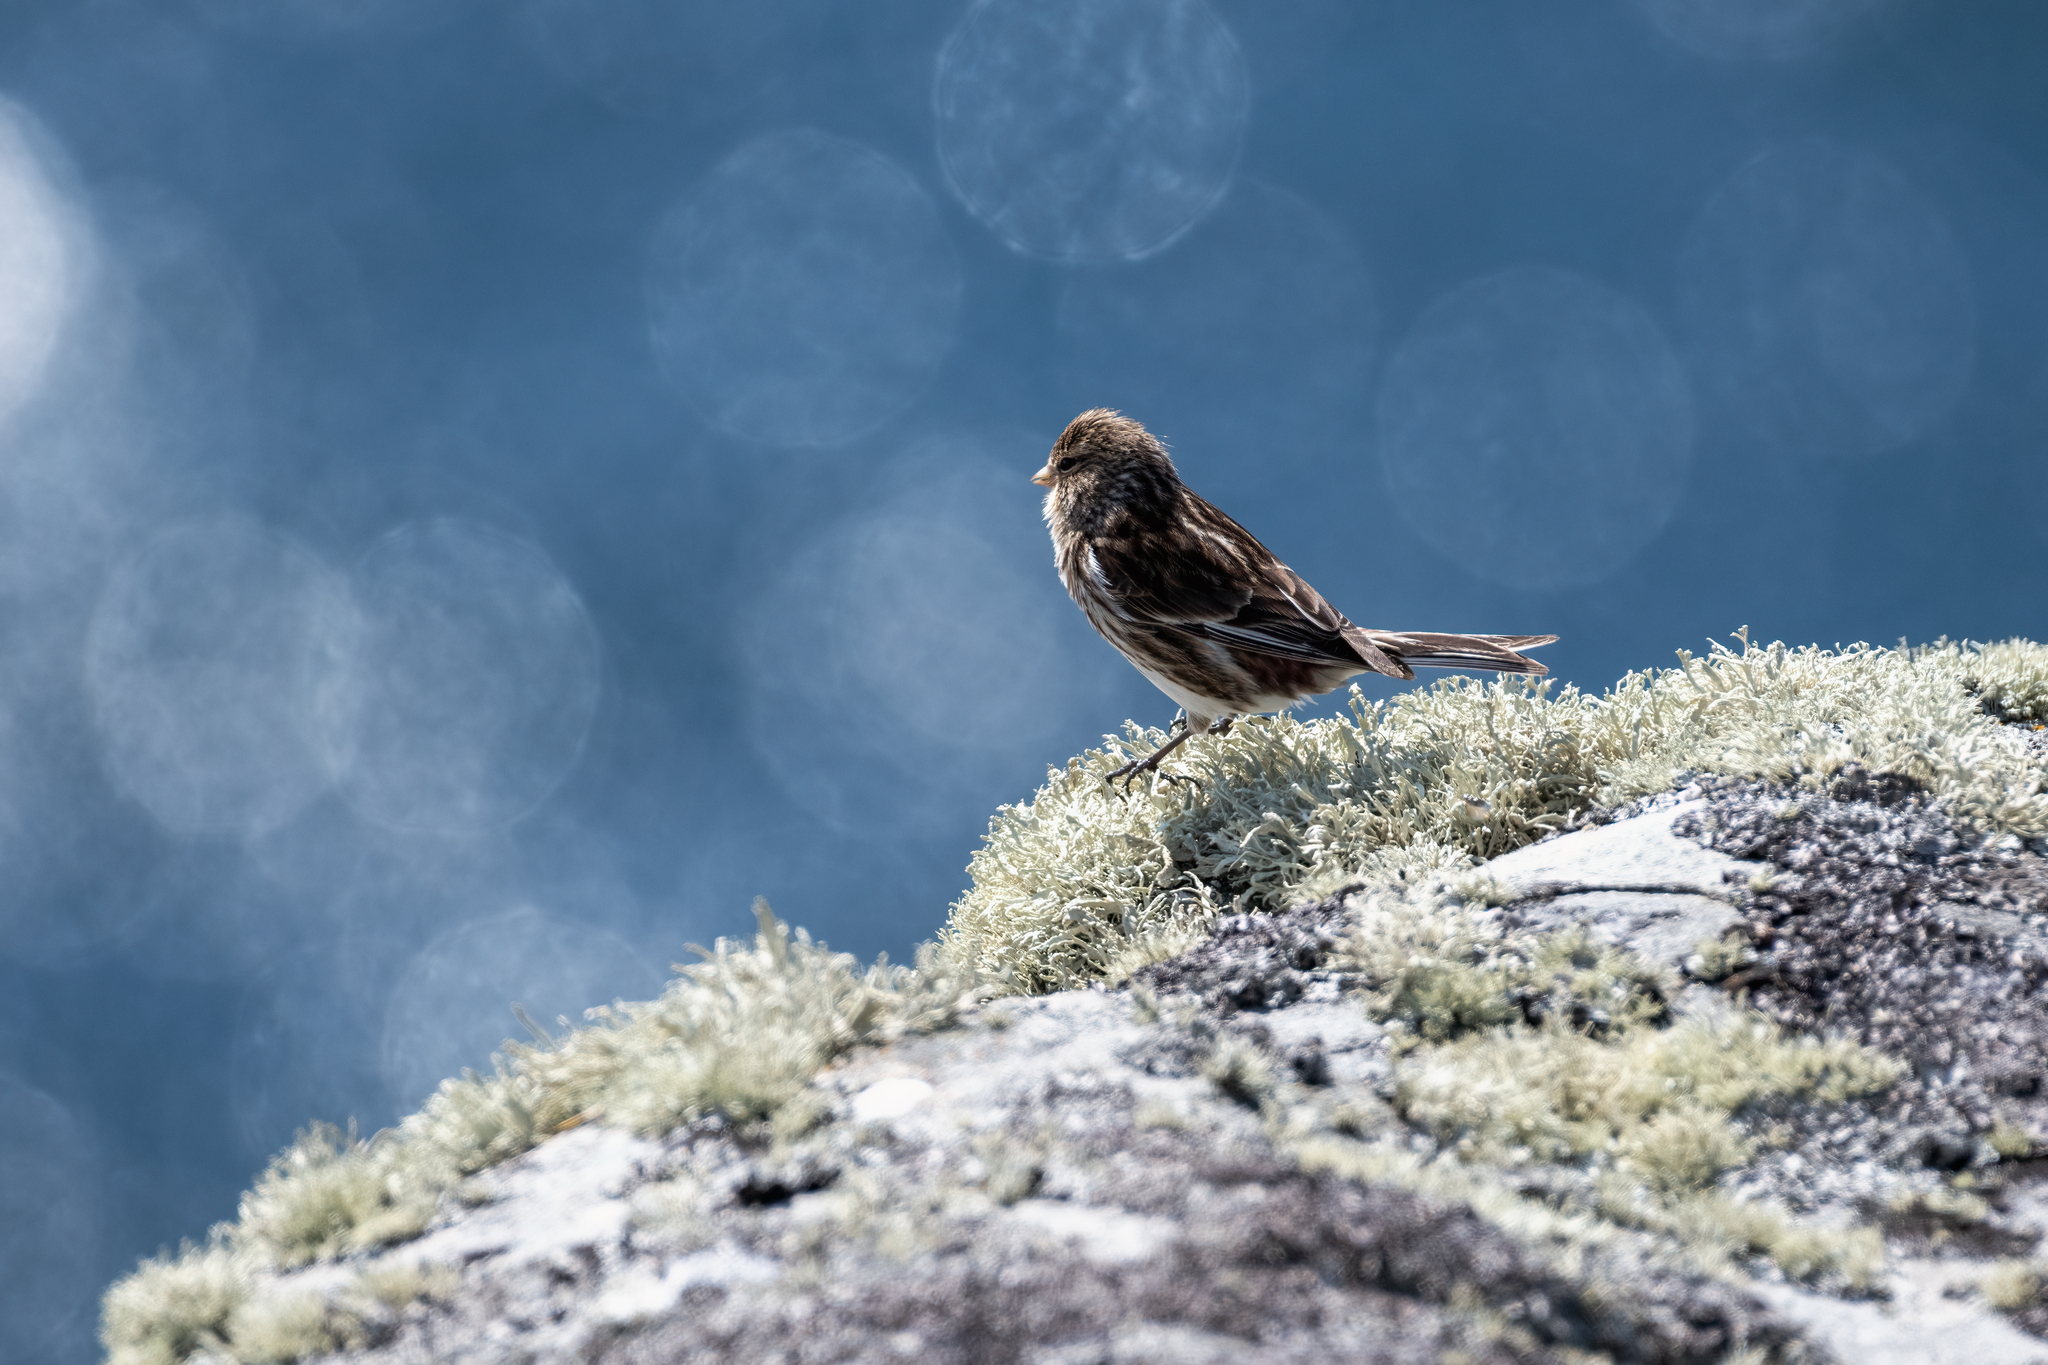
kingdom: Animalia
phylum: Chordata
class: Aves
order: Passeriformes
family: Fringillidae
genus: Linaria
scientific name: Linaria flavirostris
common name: Twite
